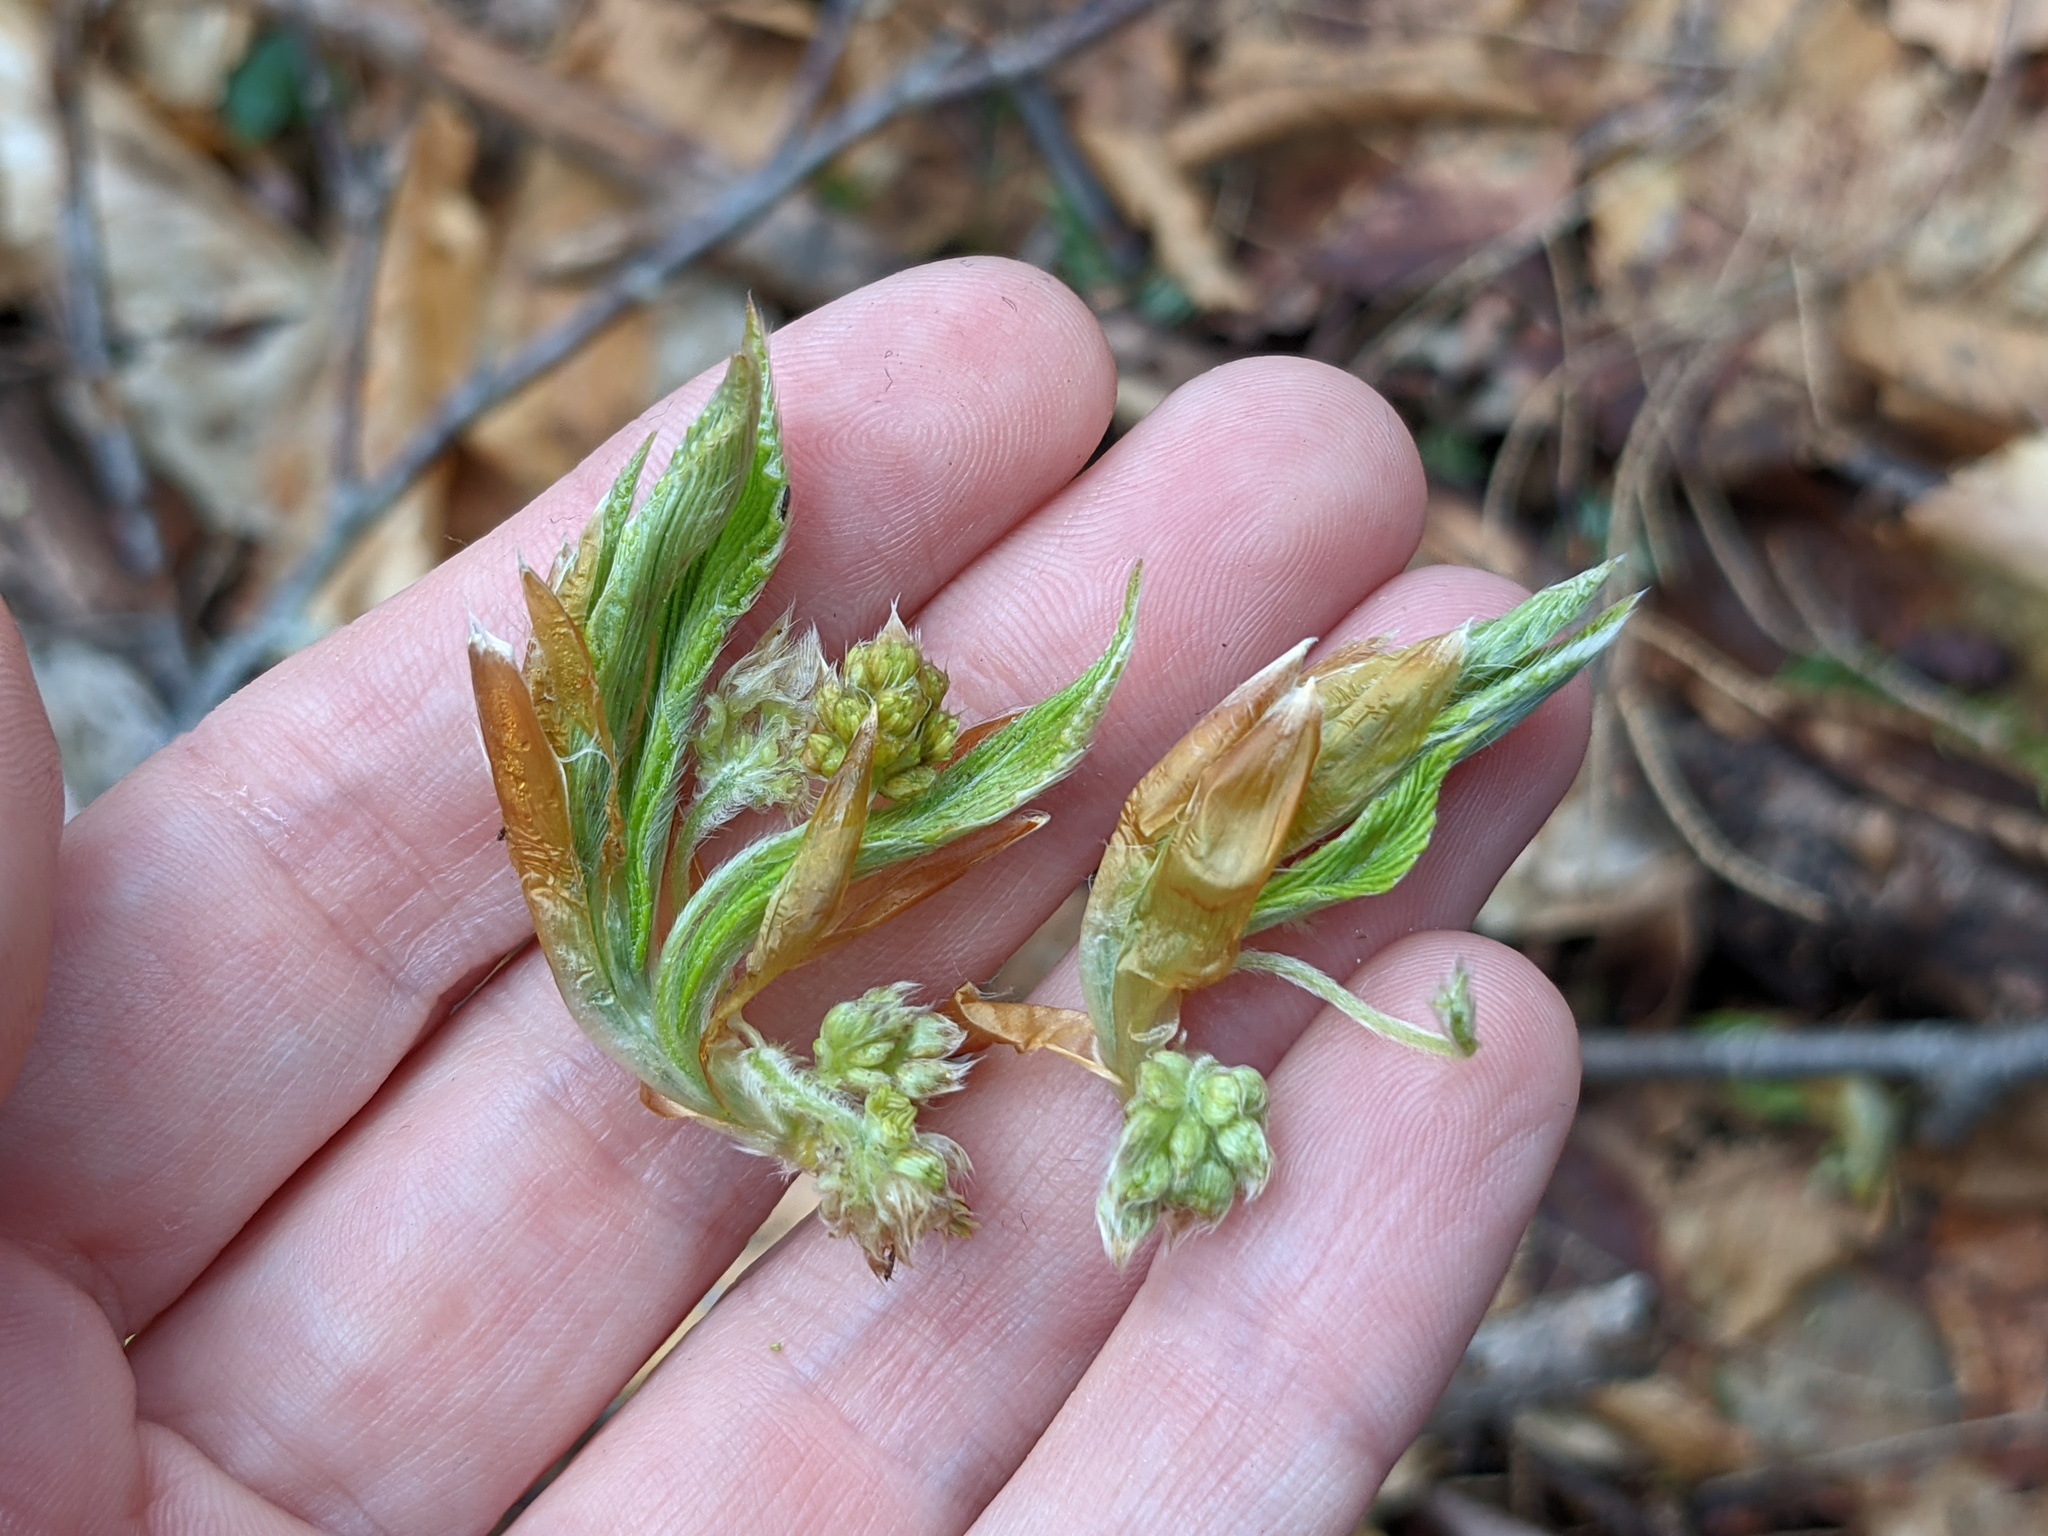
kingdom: Plantae
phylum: Tracheophyta
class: Magnoliopsida
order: Fagales
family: Fagaceae
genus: Fagus
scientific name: Fagus grandifolia
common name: American beech
